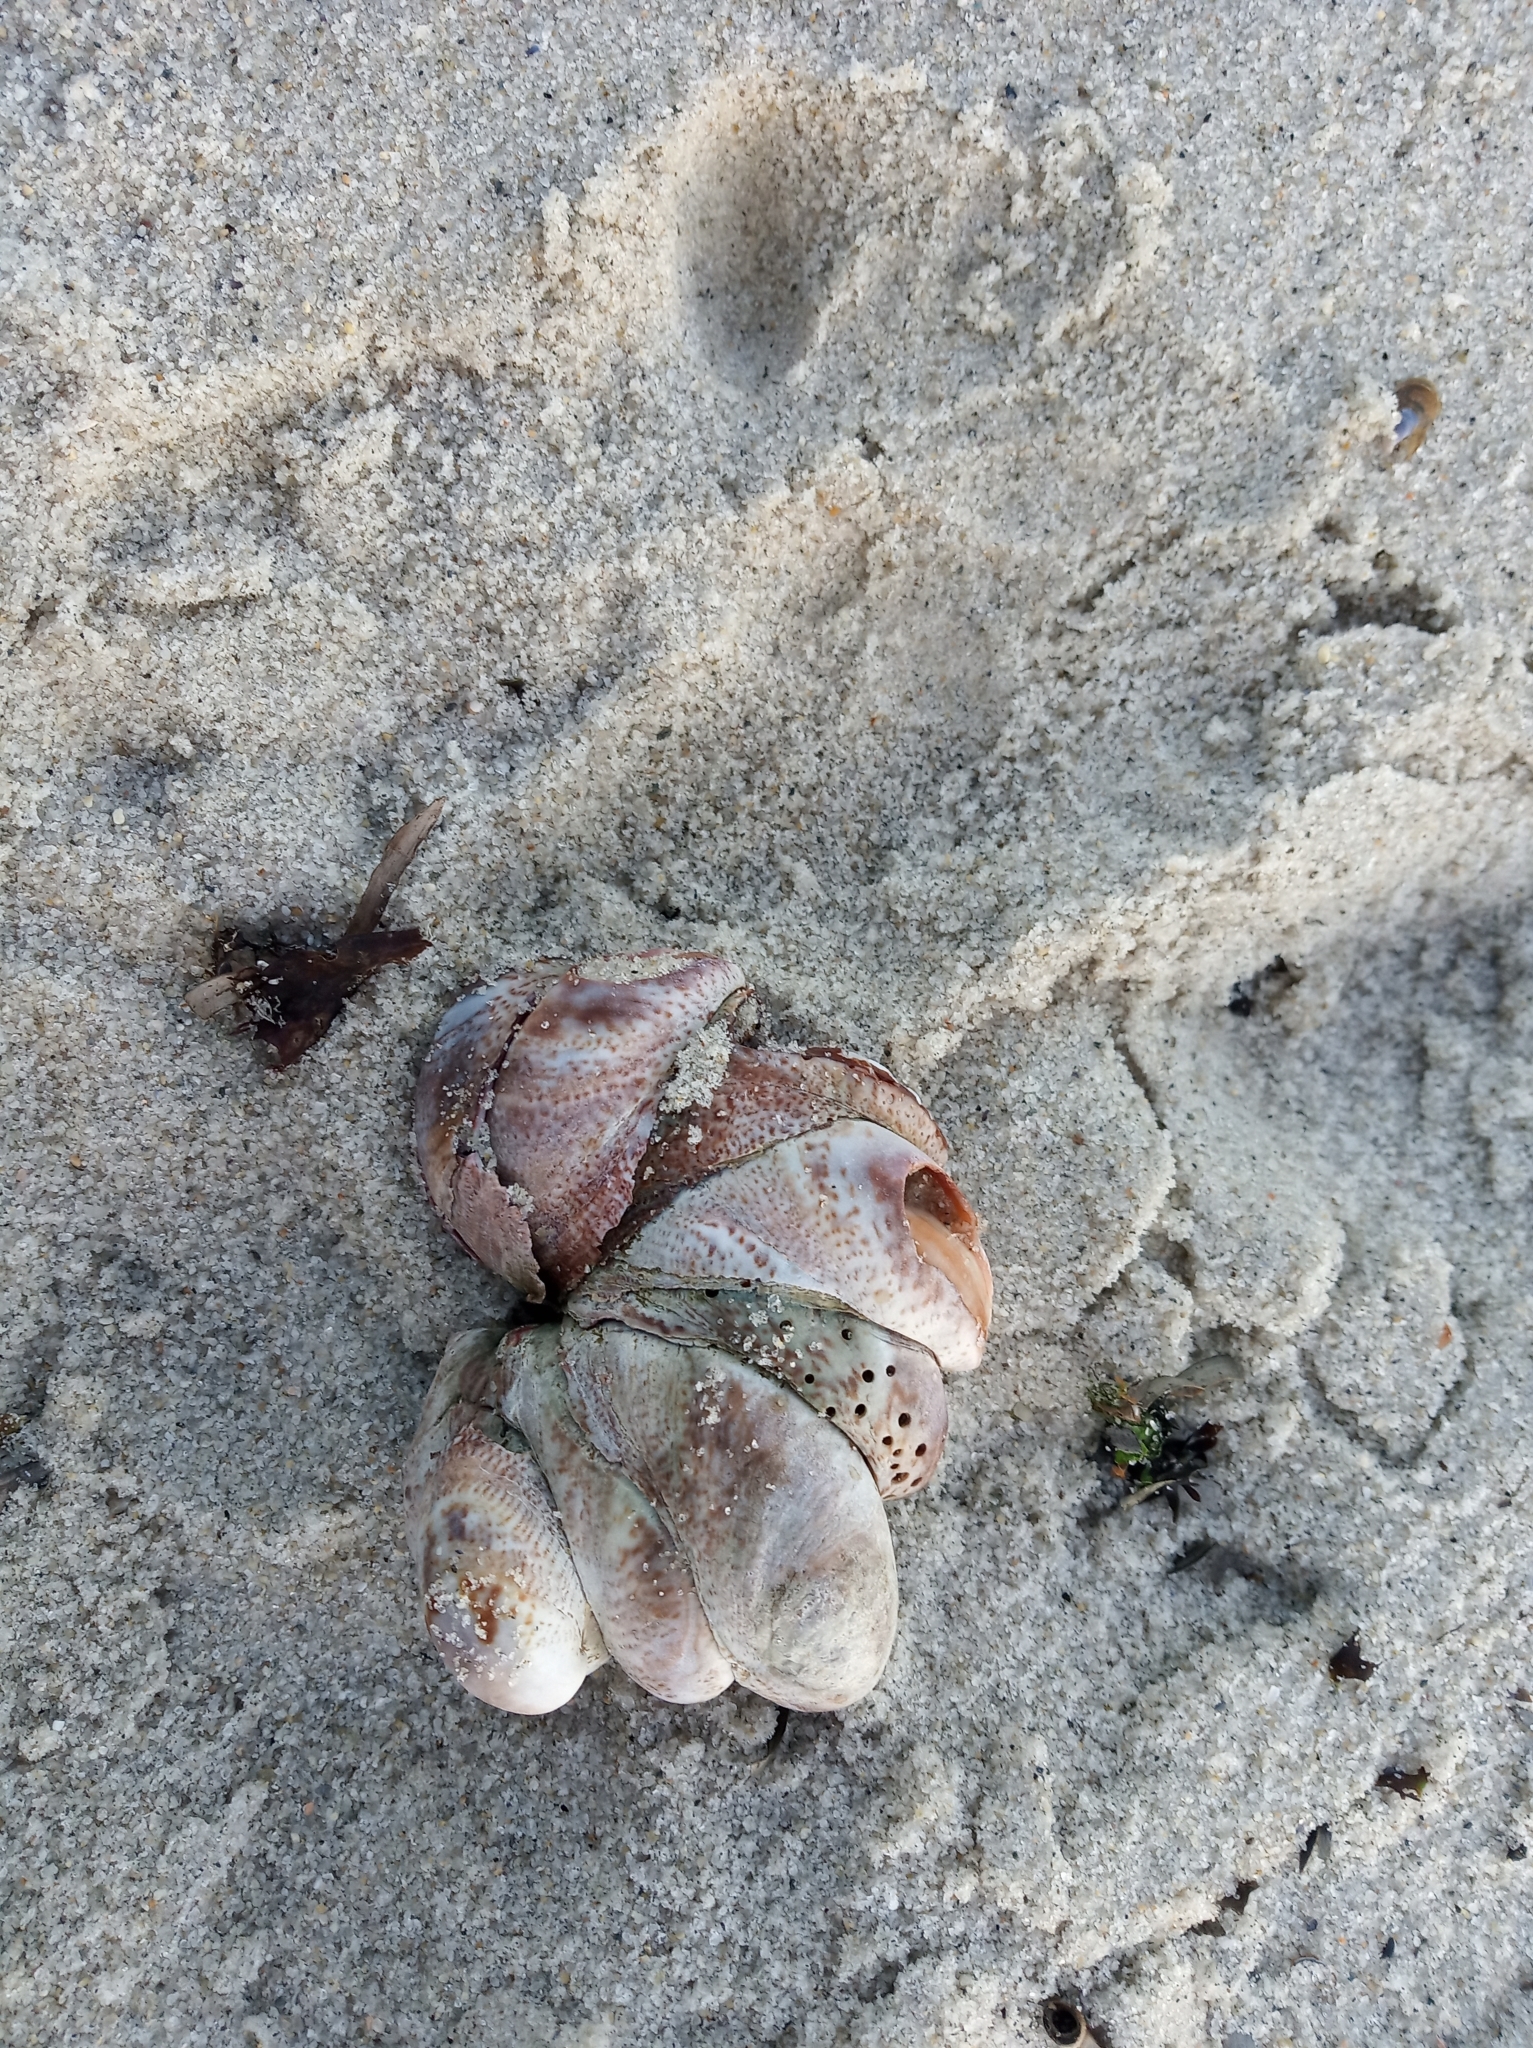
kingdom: Animalia
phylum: Mollusca
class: Gastropoda
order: Littorinimorpha
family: Calyptraeidae
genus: Crepidula
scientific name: Crepidula fornicata
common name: Slipper limpet
